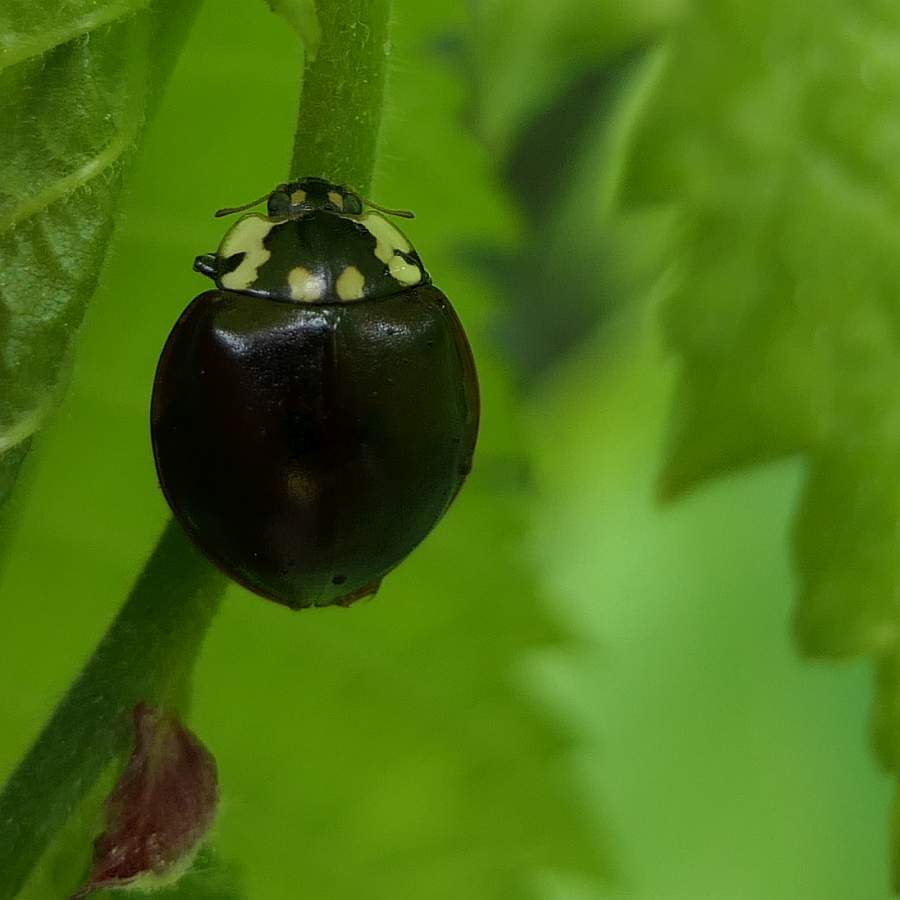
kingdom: Animalia
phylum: Arthropoda
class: Insecta
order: Coleoptera
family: Coccinellidae
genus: Anatis
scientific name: Anatis labiculata
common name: Fifteen-spotted lady beetle
